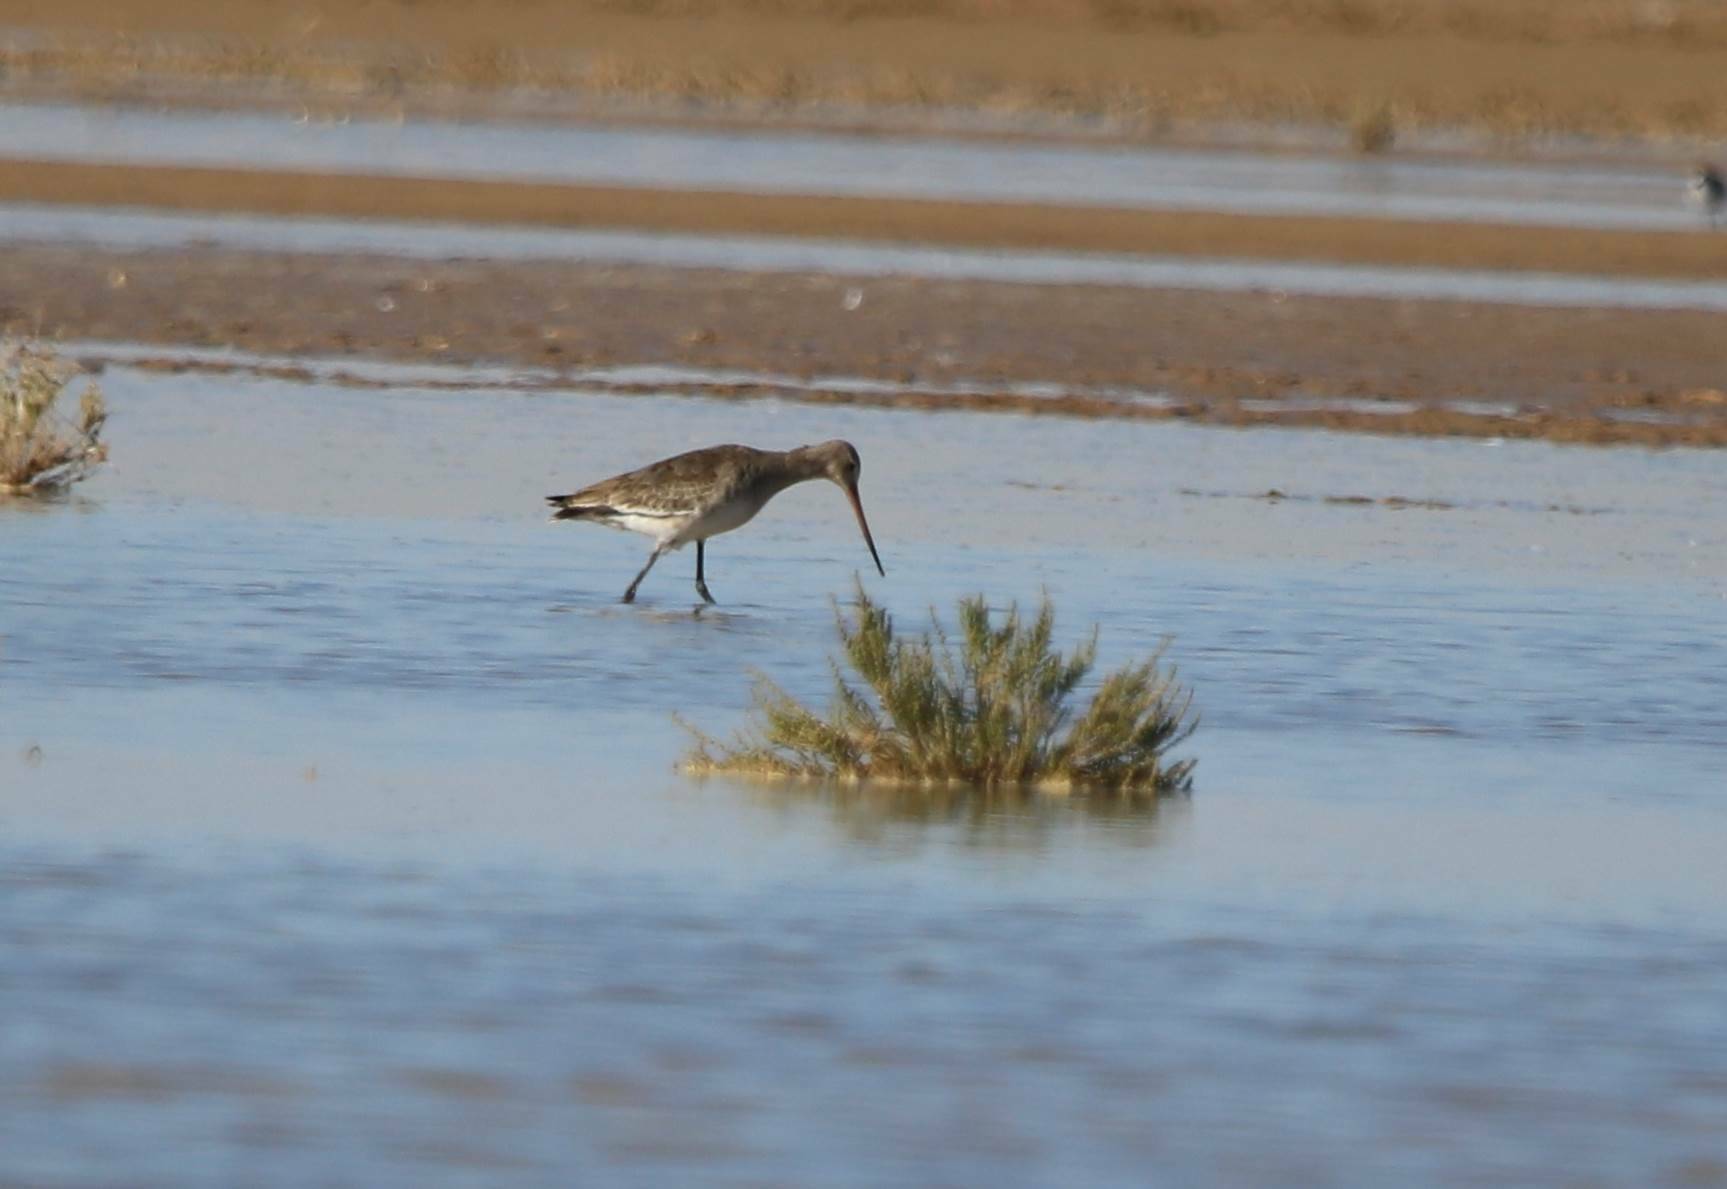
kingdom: Animalia
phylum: Chordata
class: Aves
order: Charadriiformes
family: Scolopacidae
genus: Limosa
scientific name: Limosa limosa
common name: Black-tailed godwit
